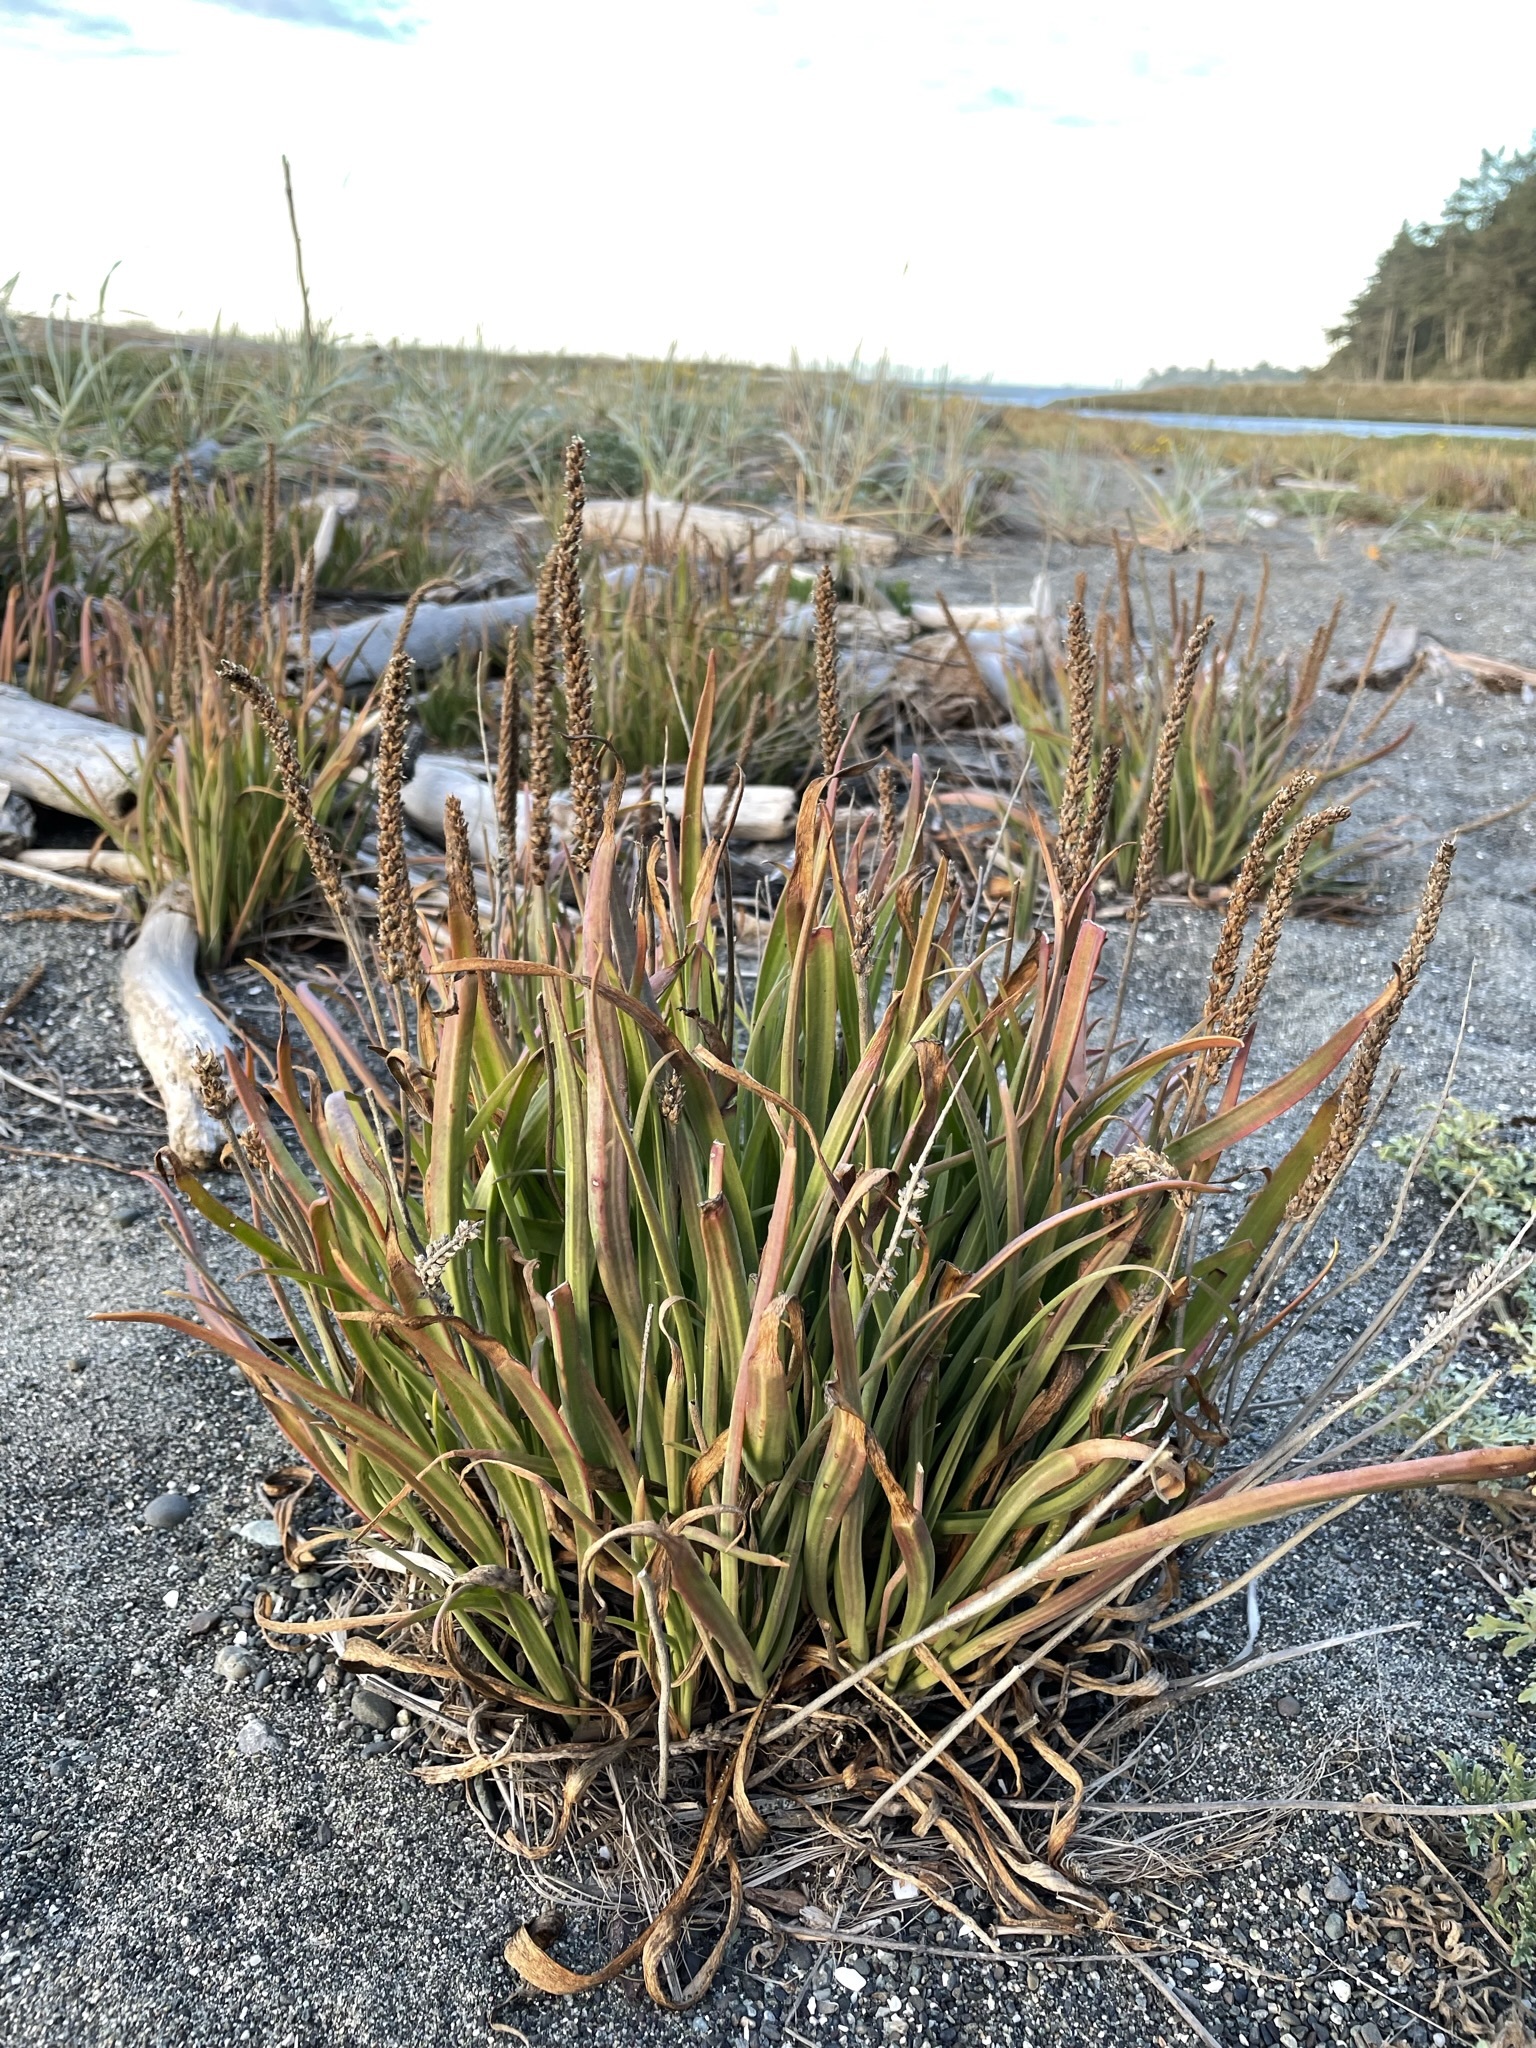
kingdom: Plantae
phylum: Tracheophyta
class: Magnoliopsida
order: Lamiales
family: Plantaginaceae
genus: Plantago
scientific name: Plantago maritima
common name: Sea plantain
